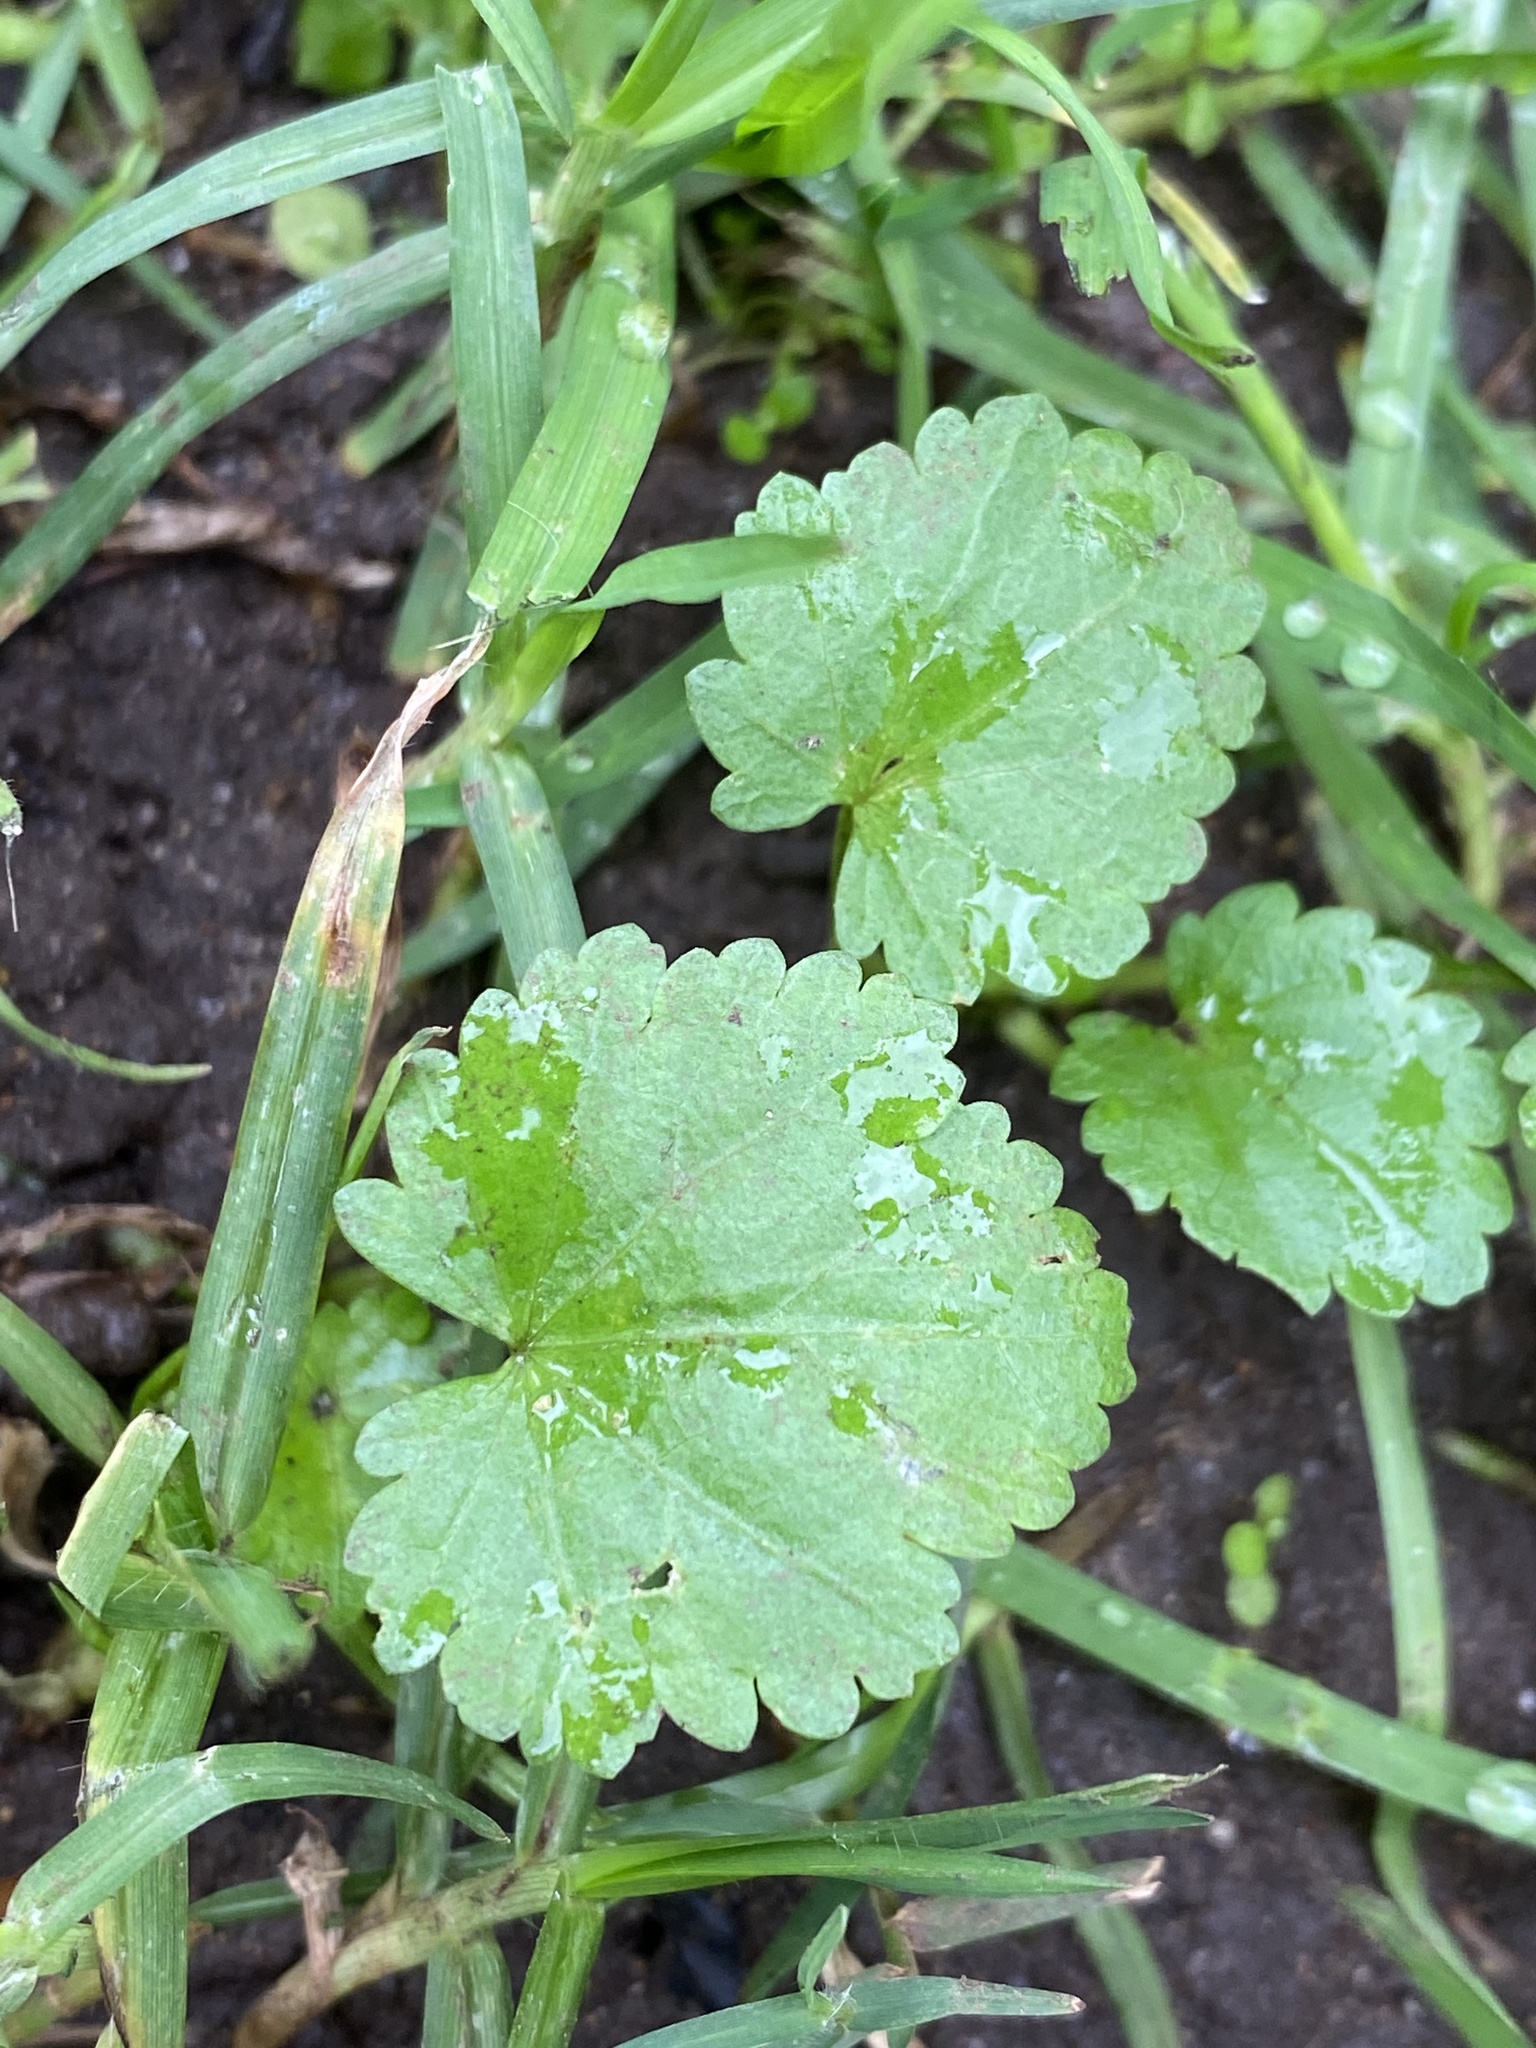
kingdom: Plantae
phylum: Tracheophyta
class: Magnoliopsida
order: Malvales
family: Malvaceae
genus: Modiola
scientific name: Modiola caroliniana
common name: Carolina bristlemallow
